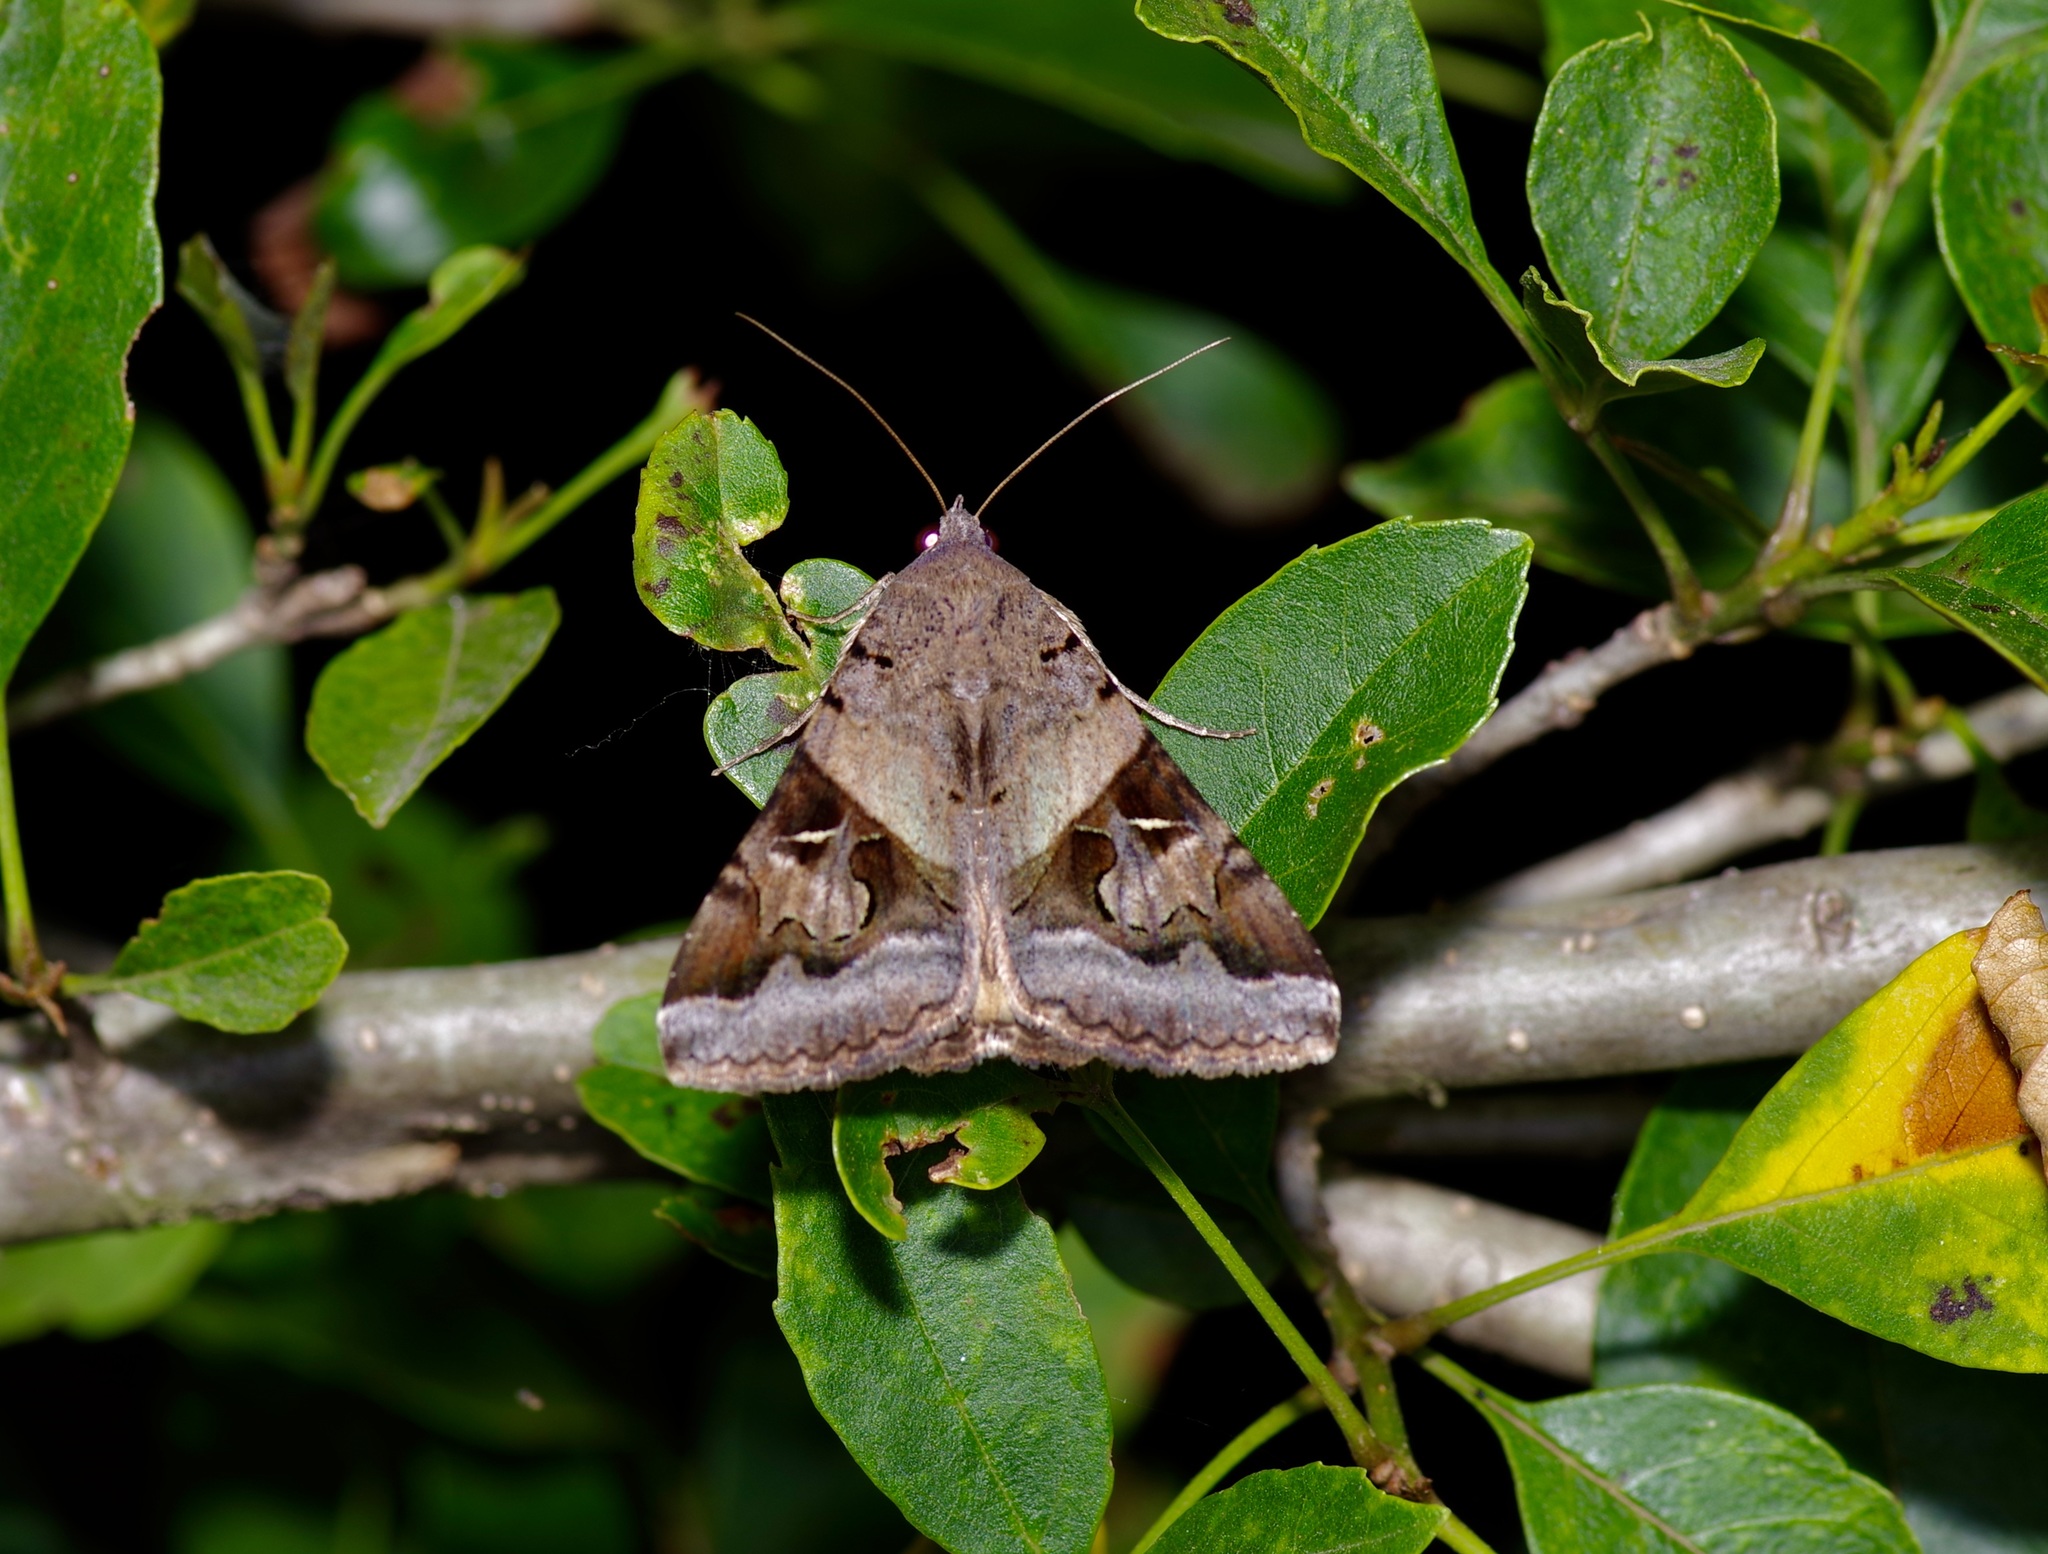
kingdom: Animalia
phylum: Arthropoda
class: Insecta
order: Lepidoptera
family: Erebidae
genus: Melipotis
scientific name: Melipotis indomita
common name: Moth
